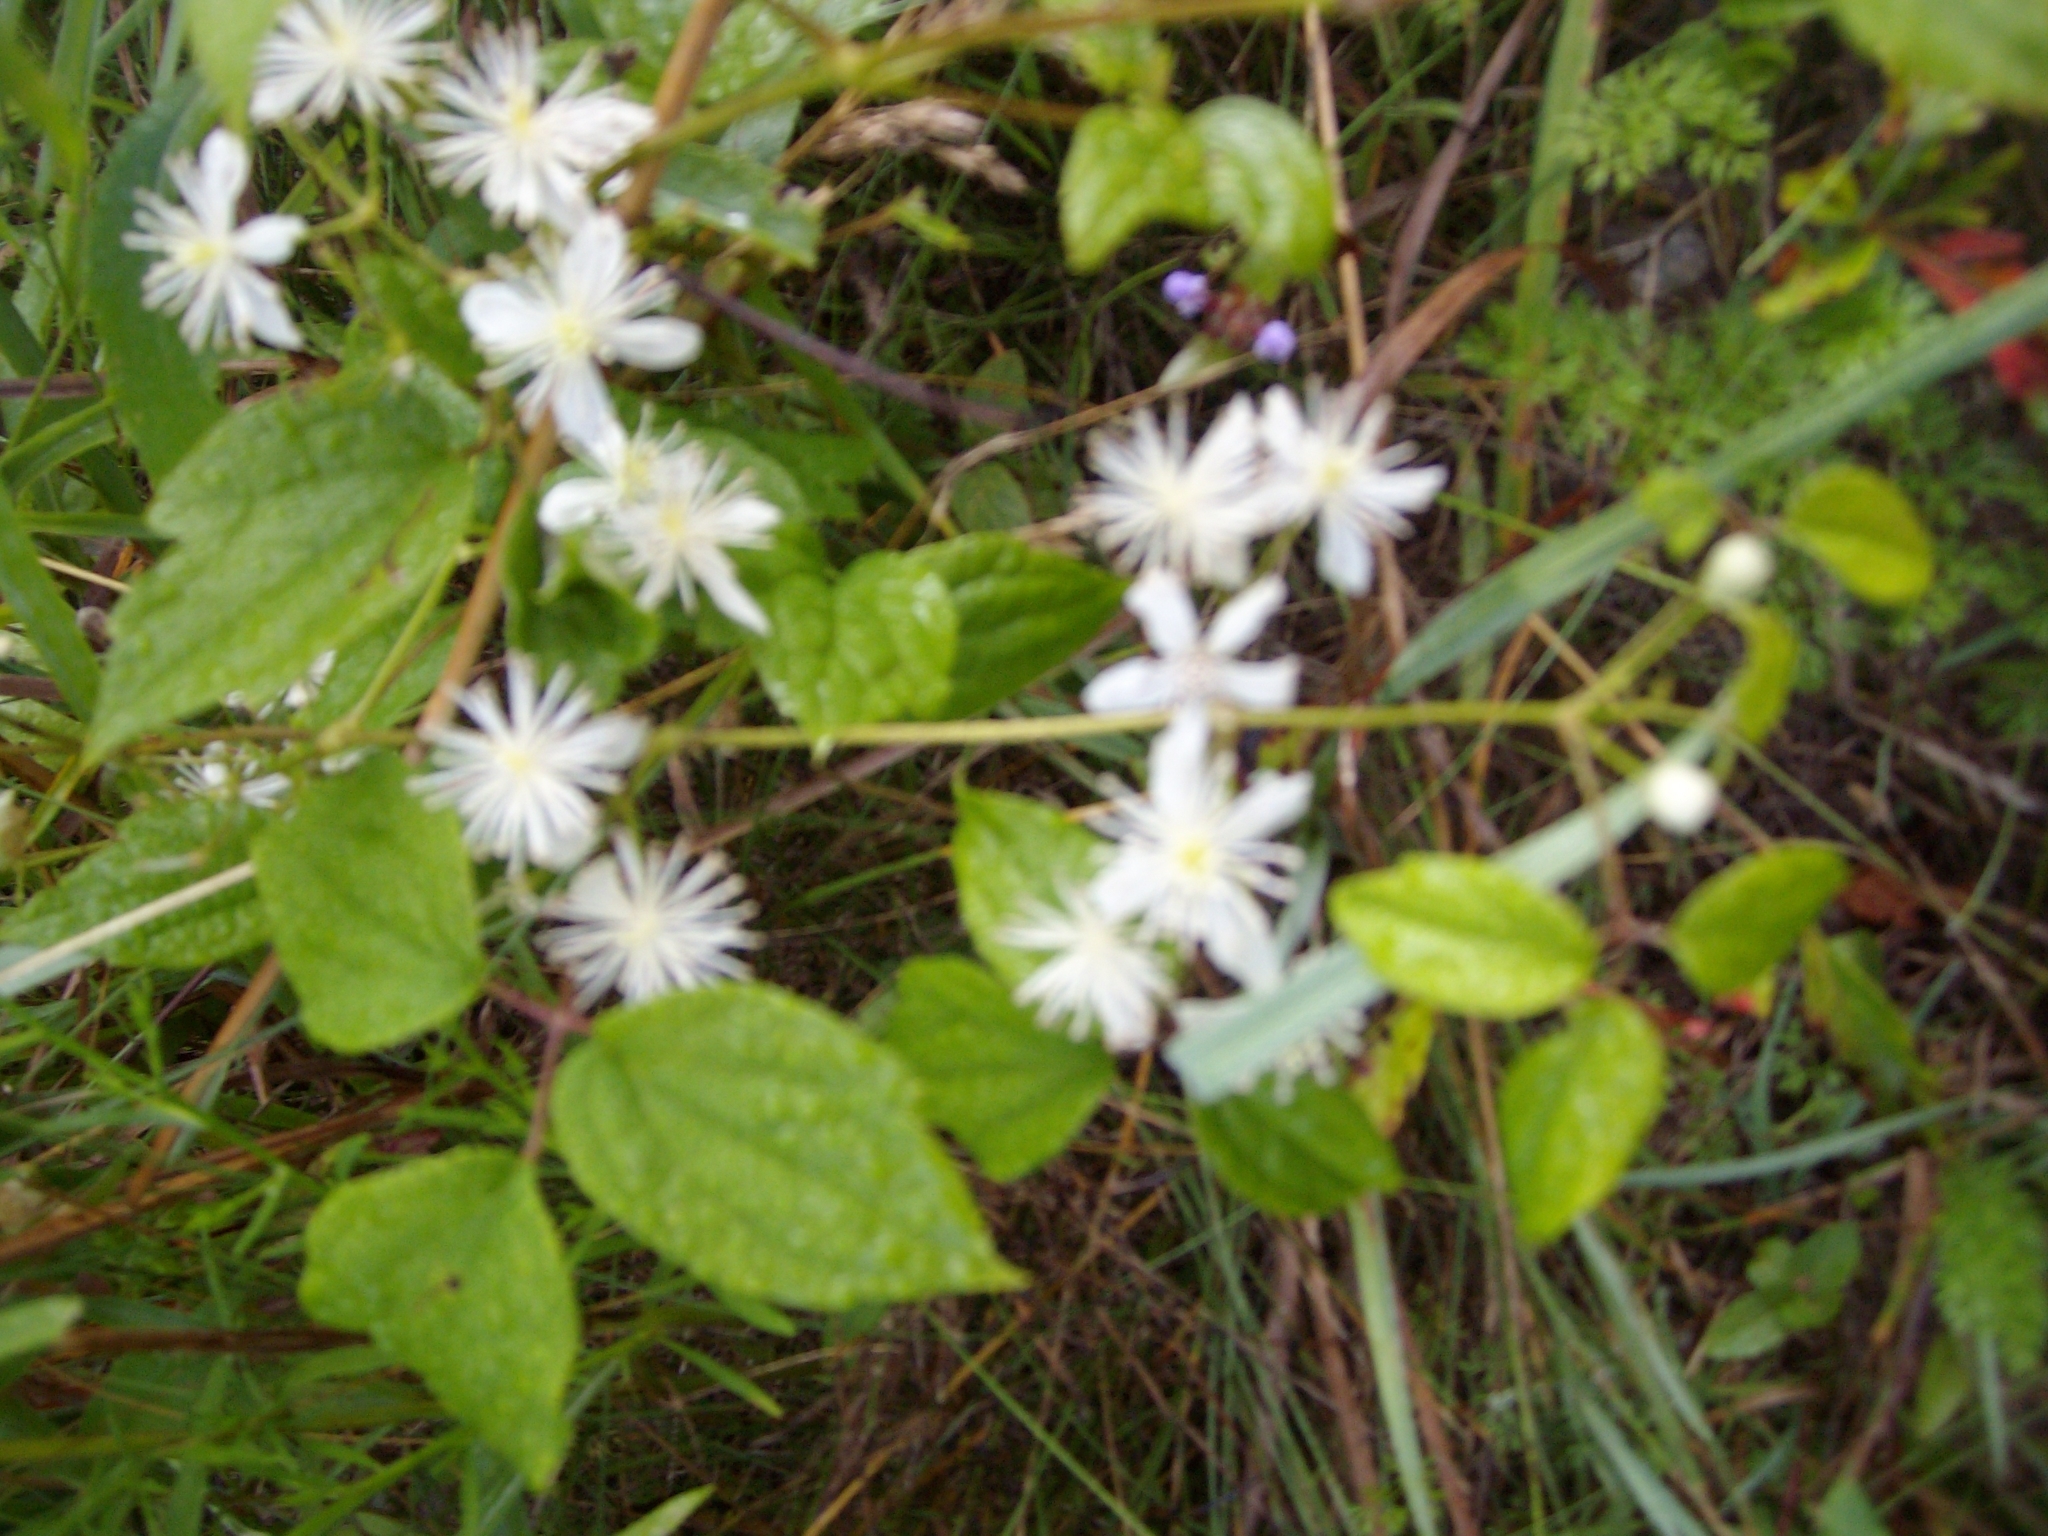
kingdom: Plantae
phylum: Tracheophyta
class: Magnoliopsida
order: Ranunculales
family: Ranunculaceae
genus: Clematis
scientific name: Clematis virginiana
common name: Virgin's-bower
